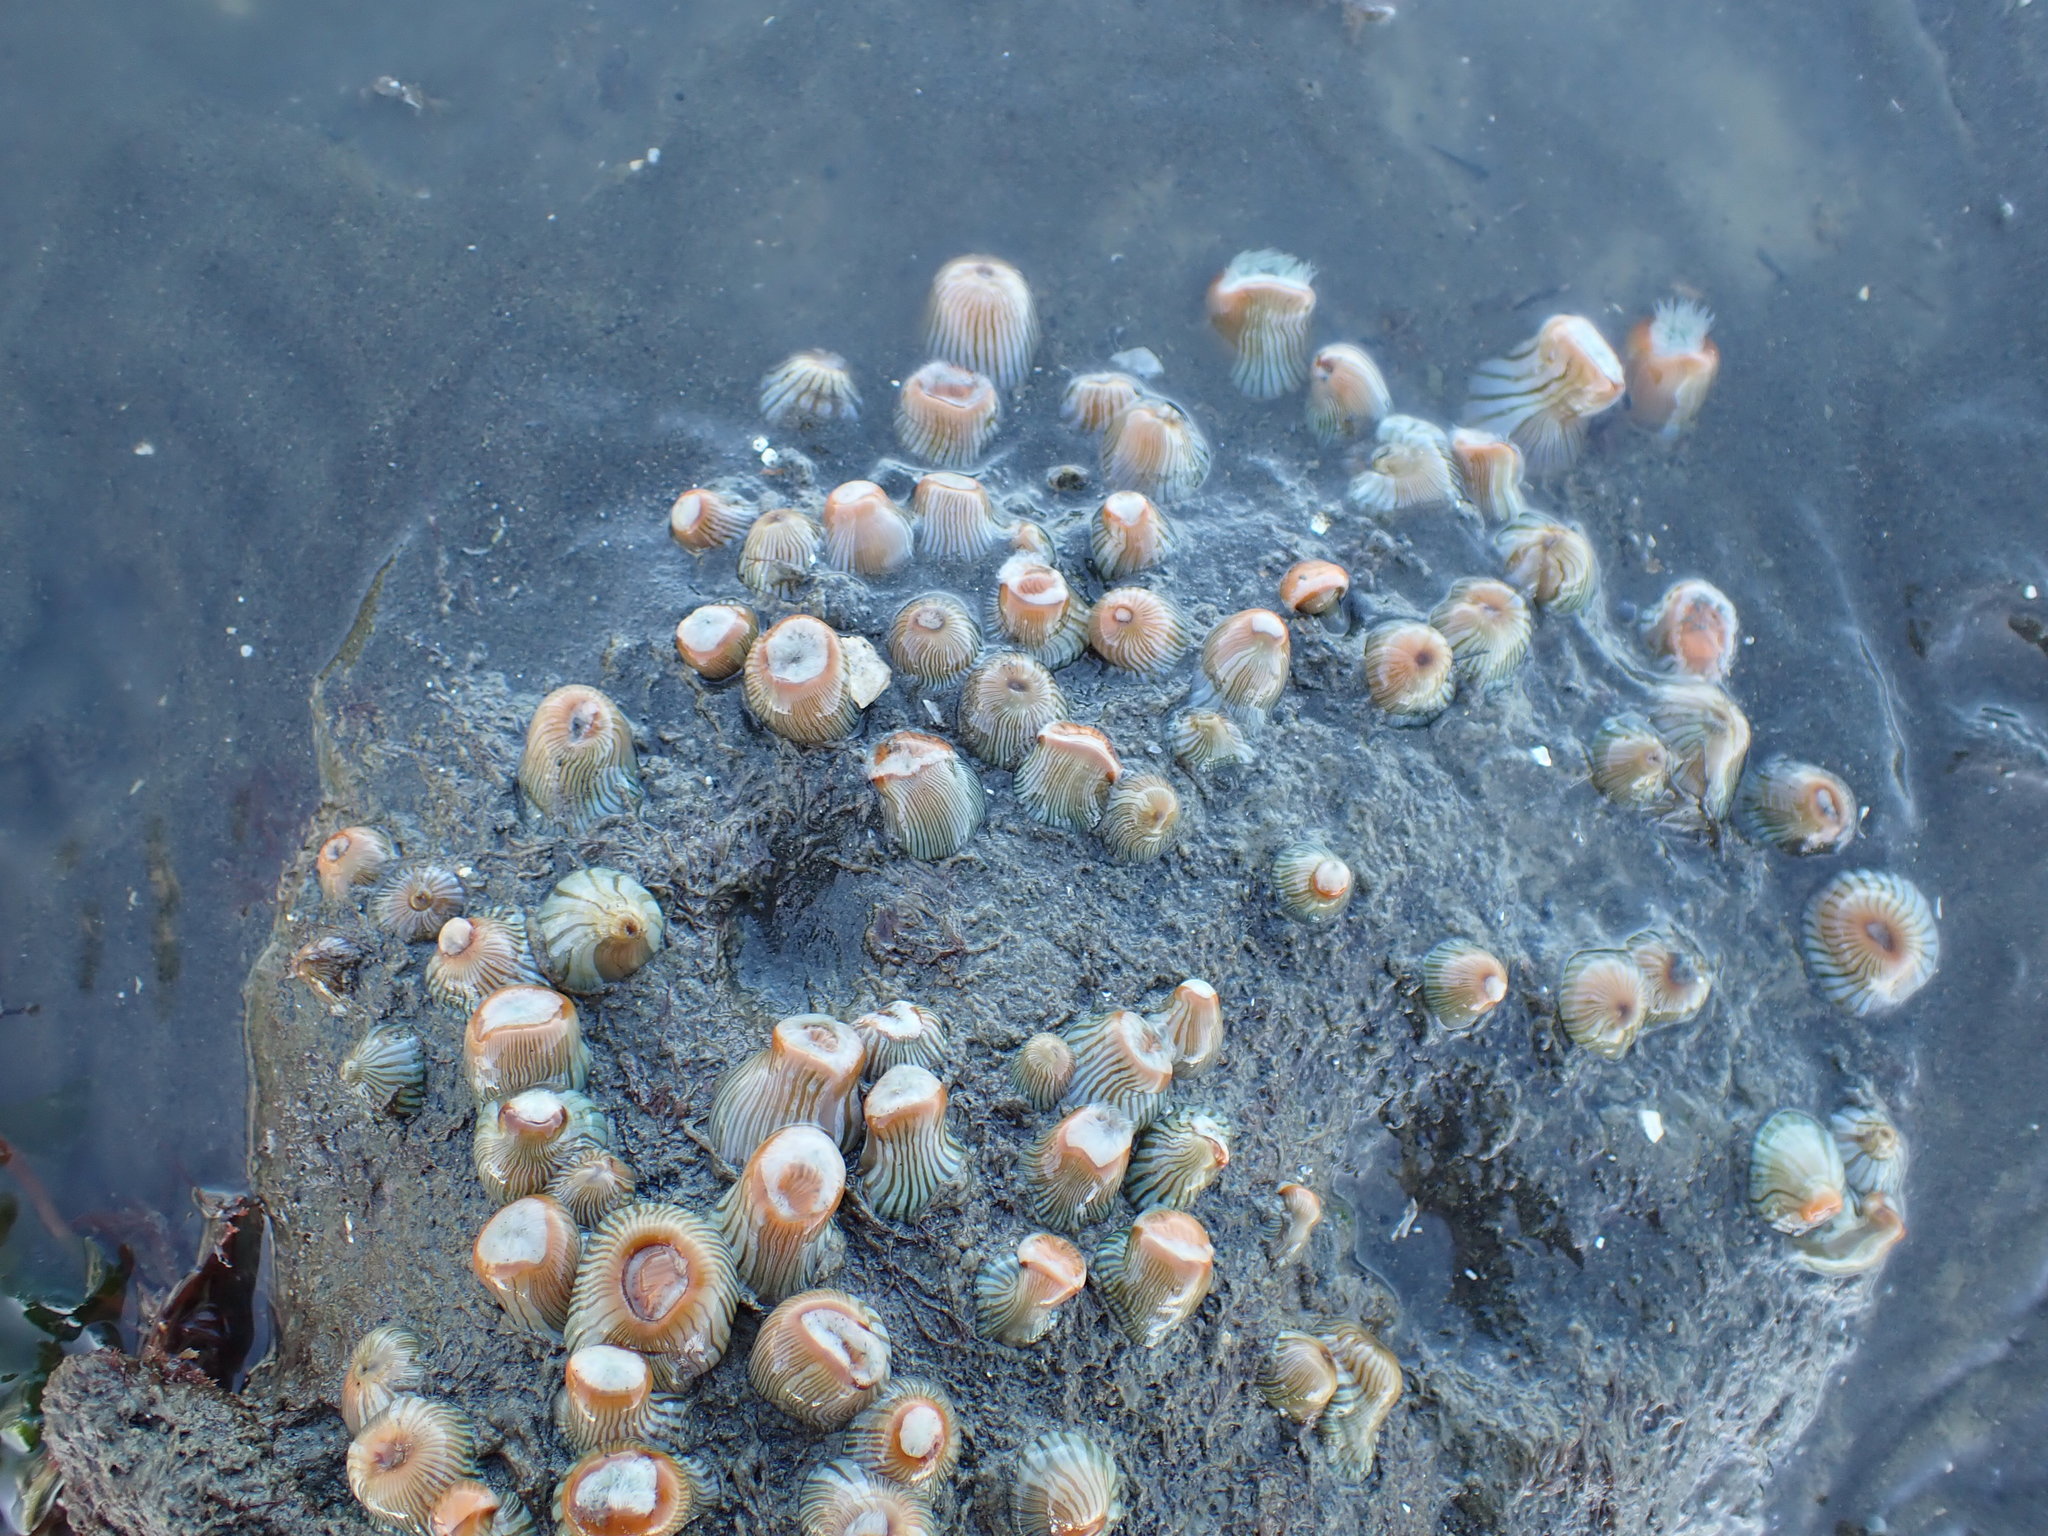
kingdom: Animalia
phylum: Cnidaria
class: Anthozoa
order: Actiniaria
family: Sagartiidae
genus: Anthothoe
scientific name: Anthothoe albocincta
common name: Orange striped anemone
